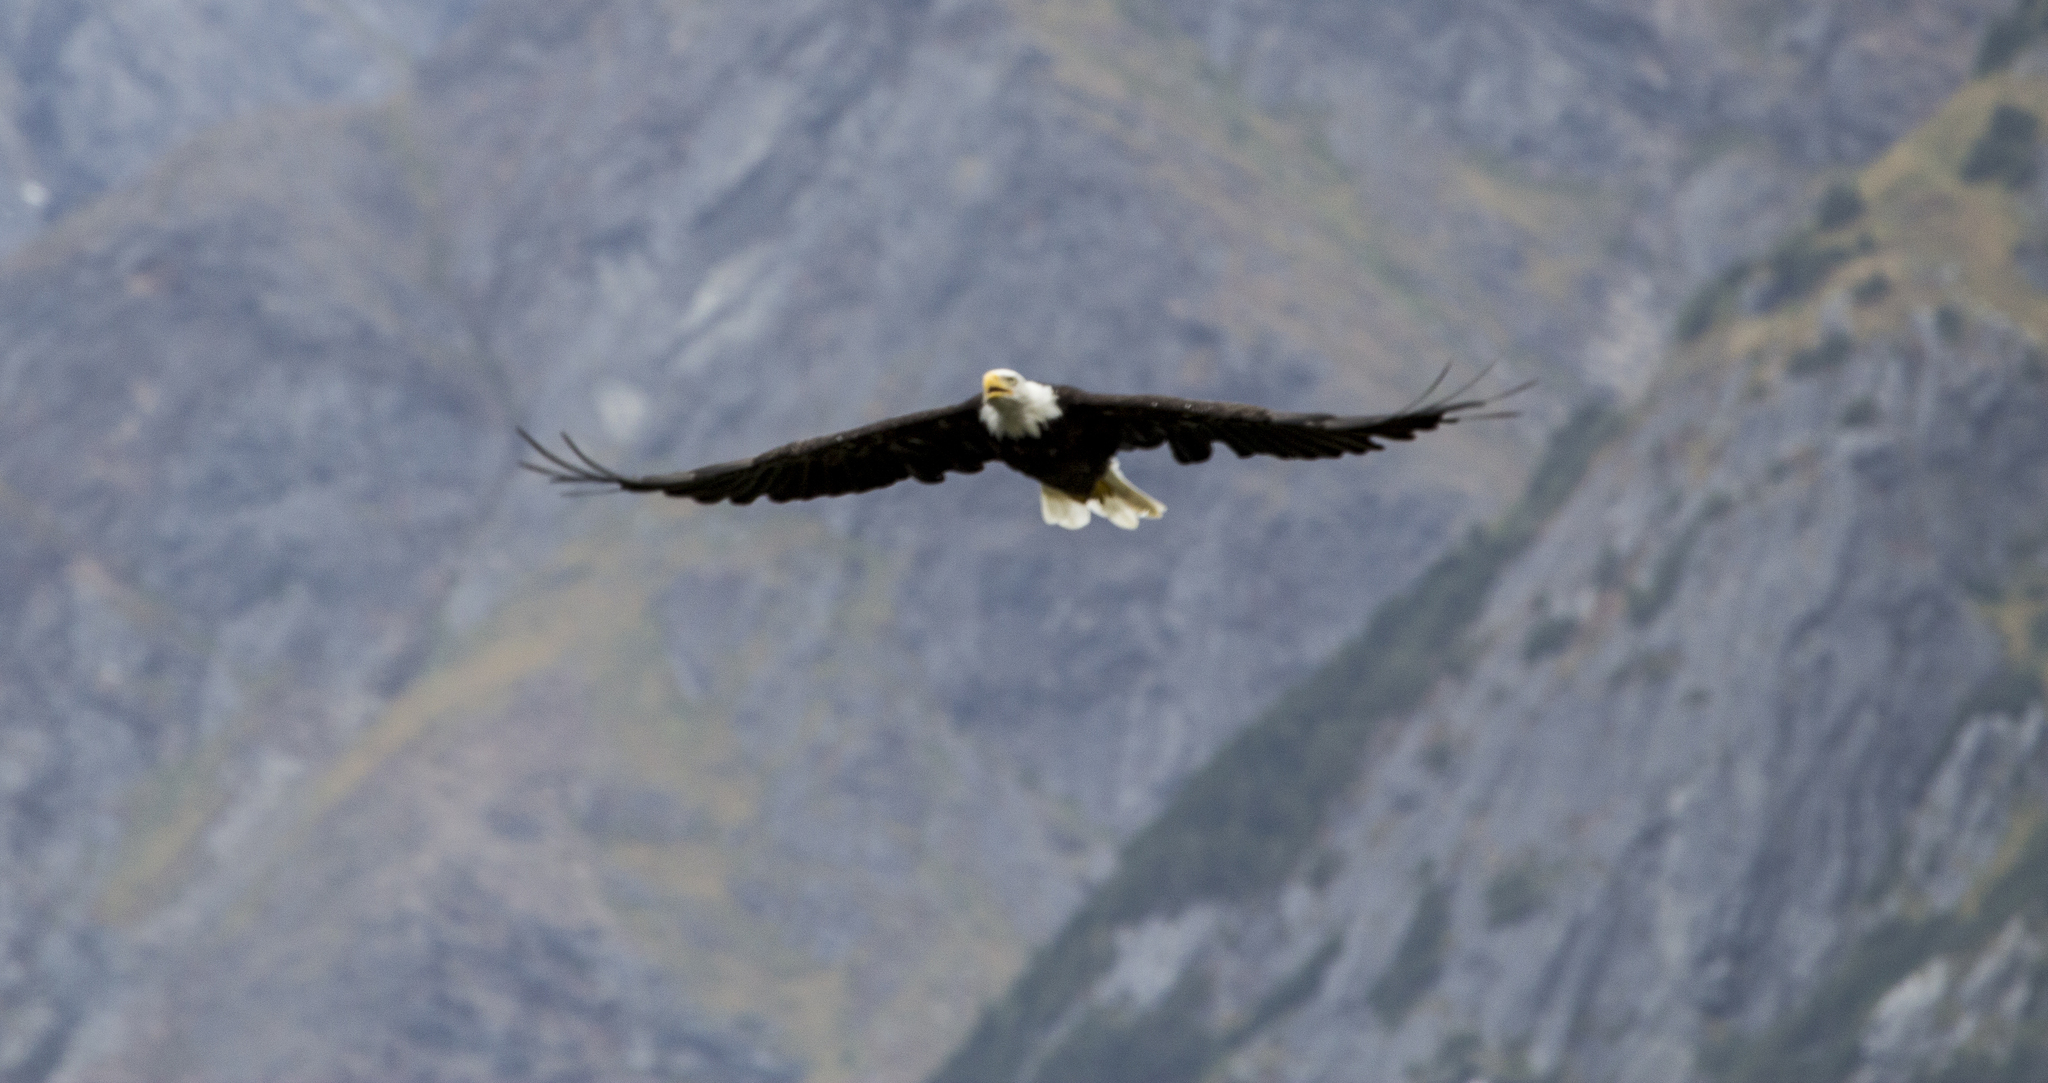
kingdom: Animalia
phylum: Chordata
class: Aves
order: Accipitriformes
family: Accipitridae
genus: Haliaeetus
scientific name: Haliaeetus leucocephalus
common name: Bald eagle
